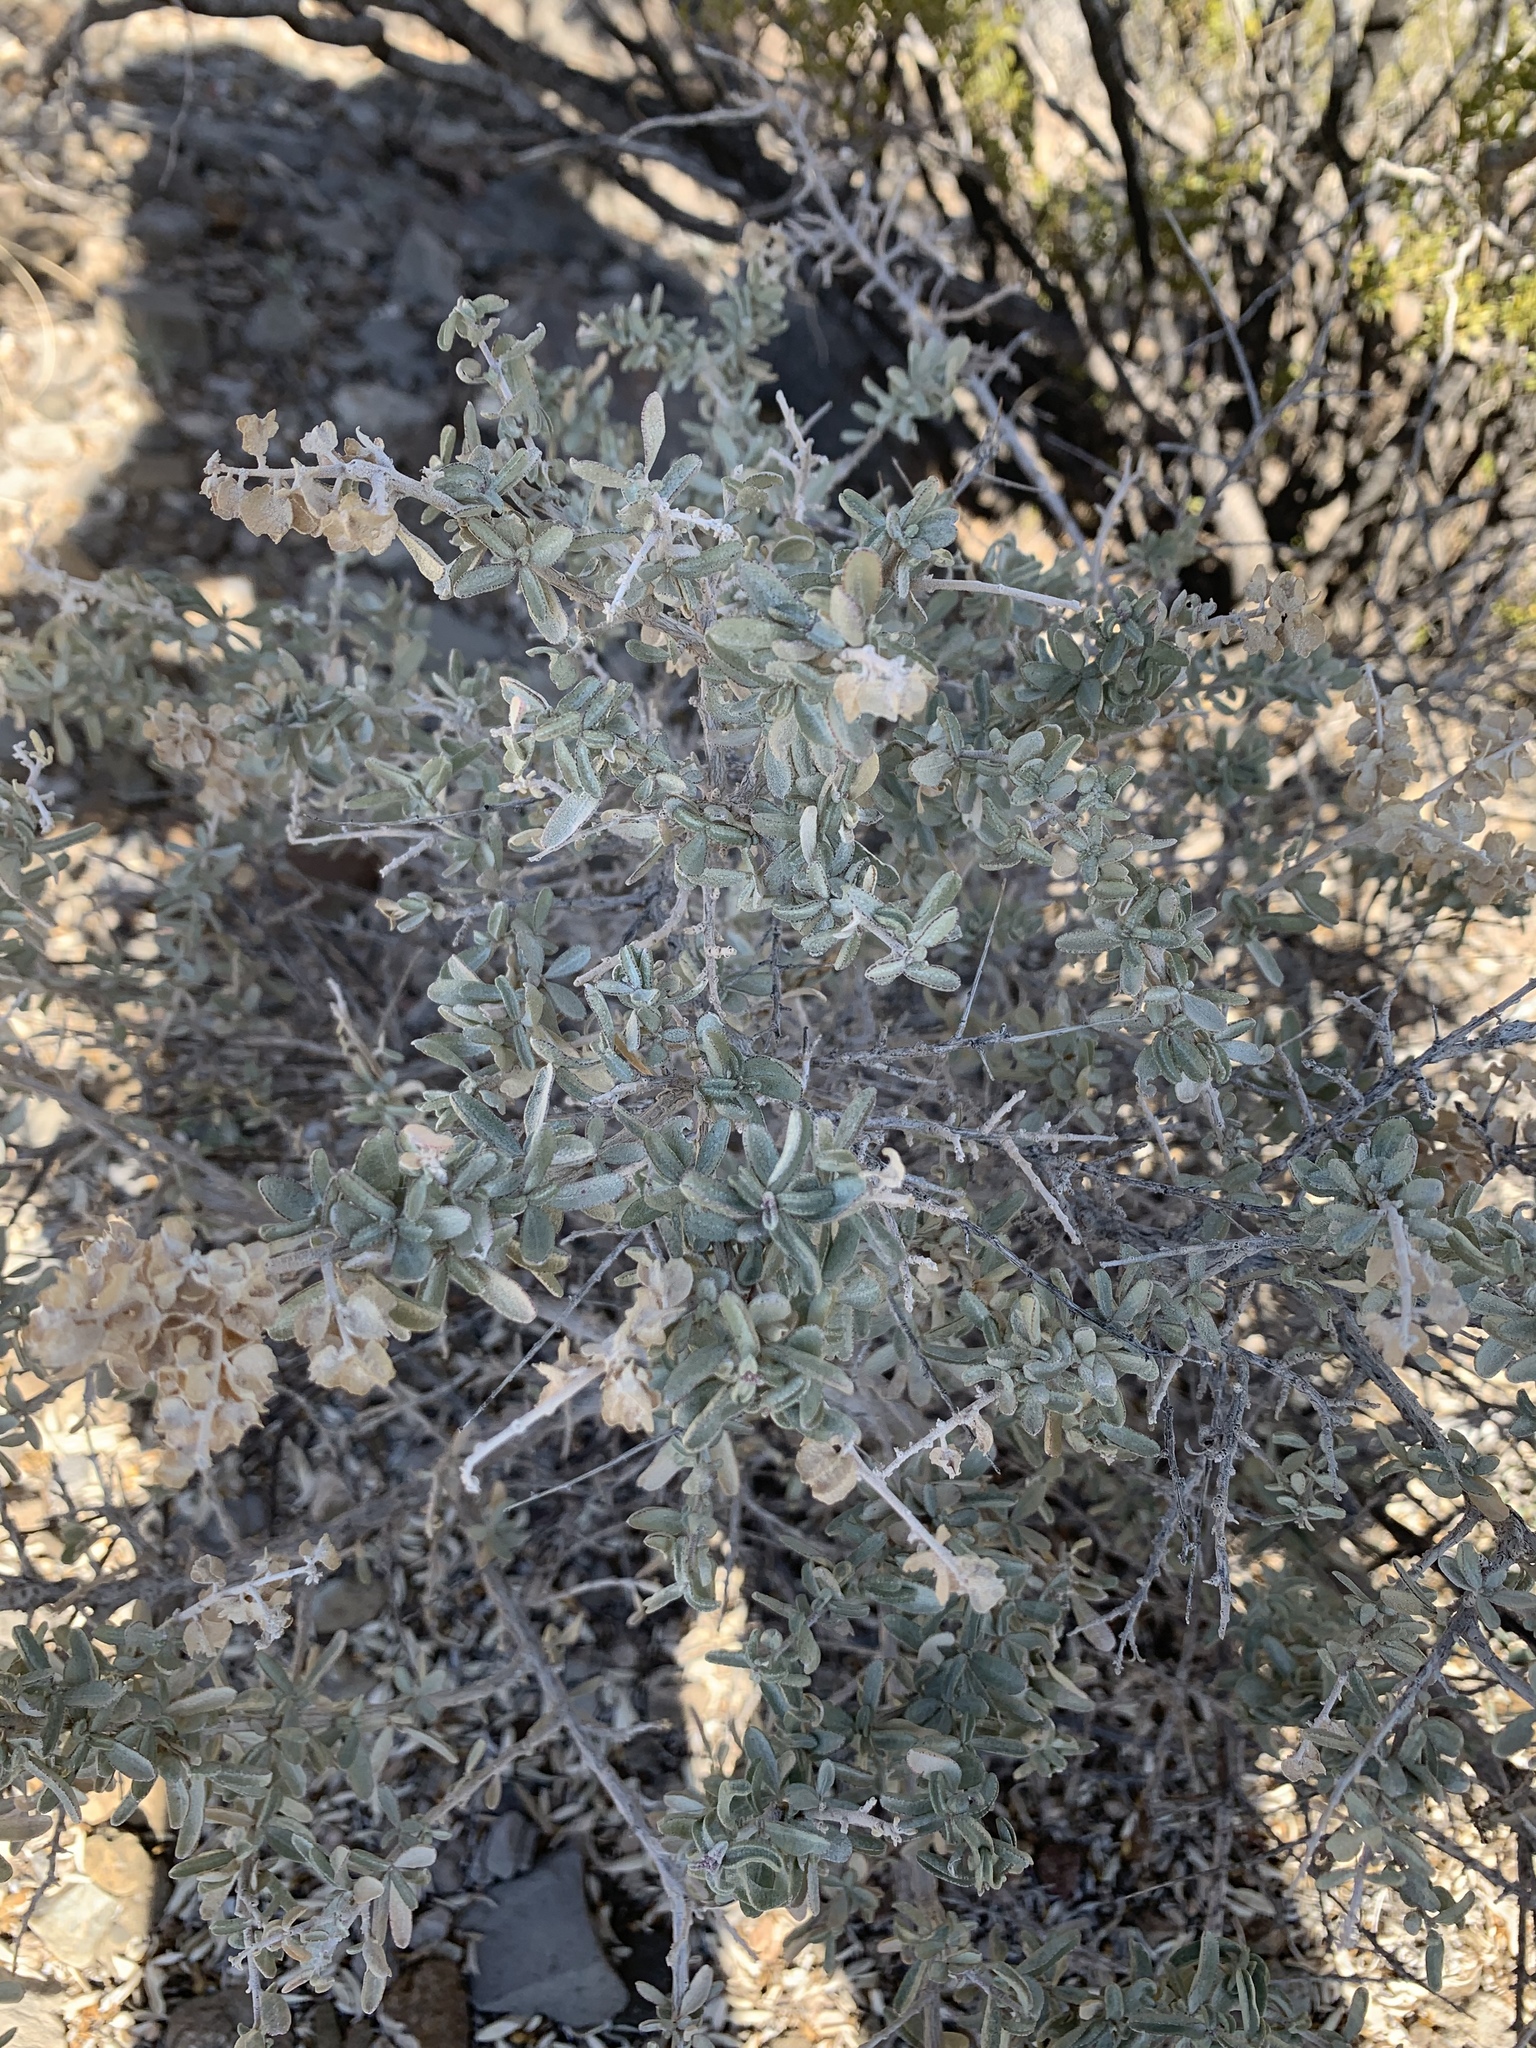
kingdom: Plantae
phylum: Tracheophyta
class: Magnoliopsida
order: Caryophyllales
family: Amaranthaceae
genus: Atriplex
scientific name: Atriplex canescens
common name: Four-wing saltbush
